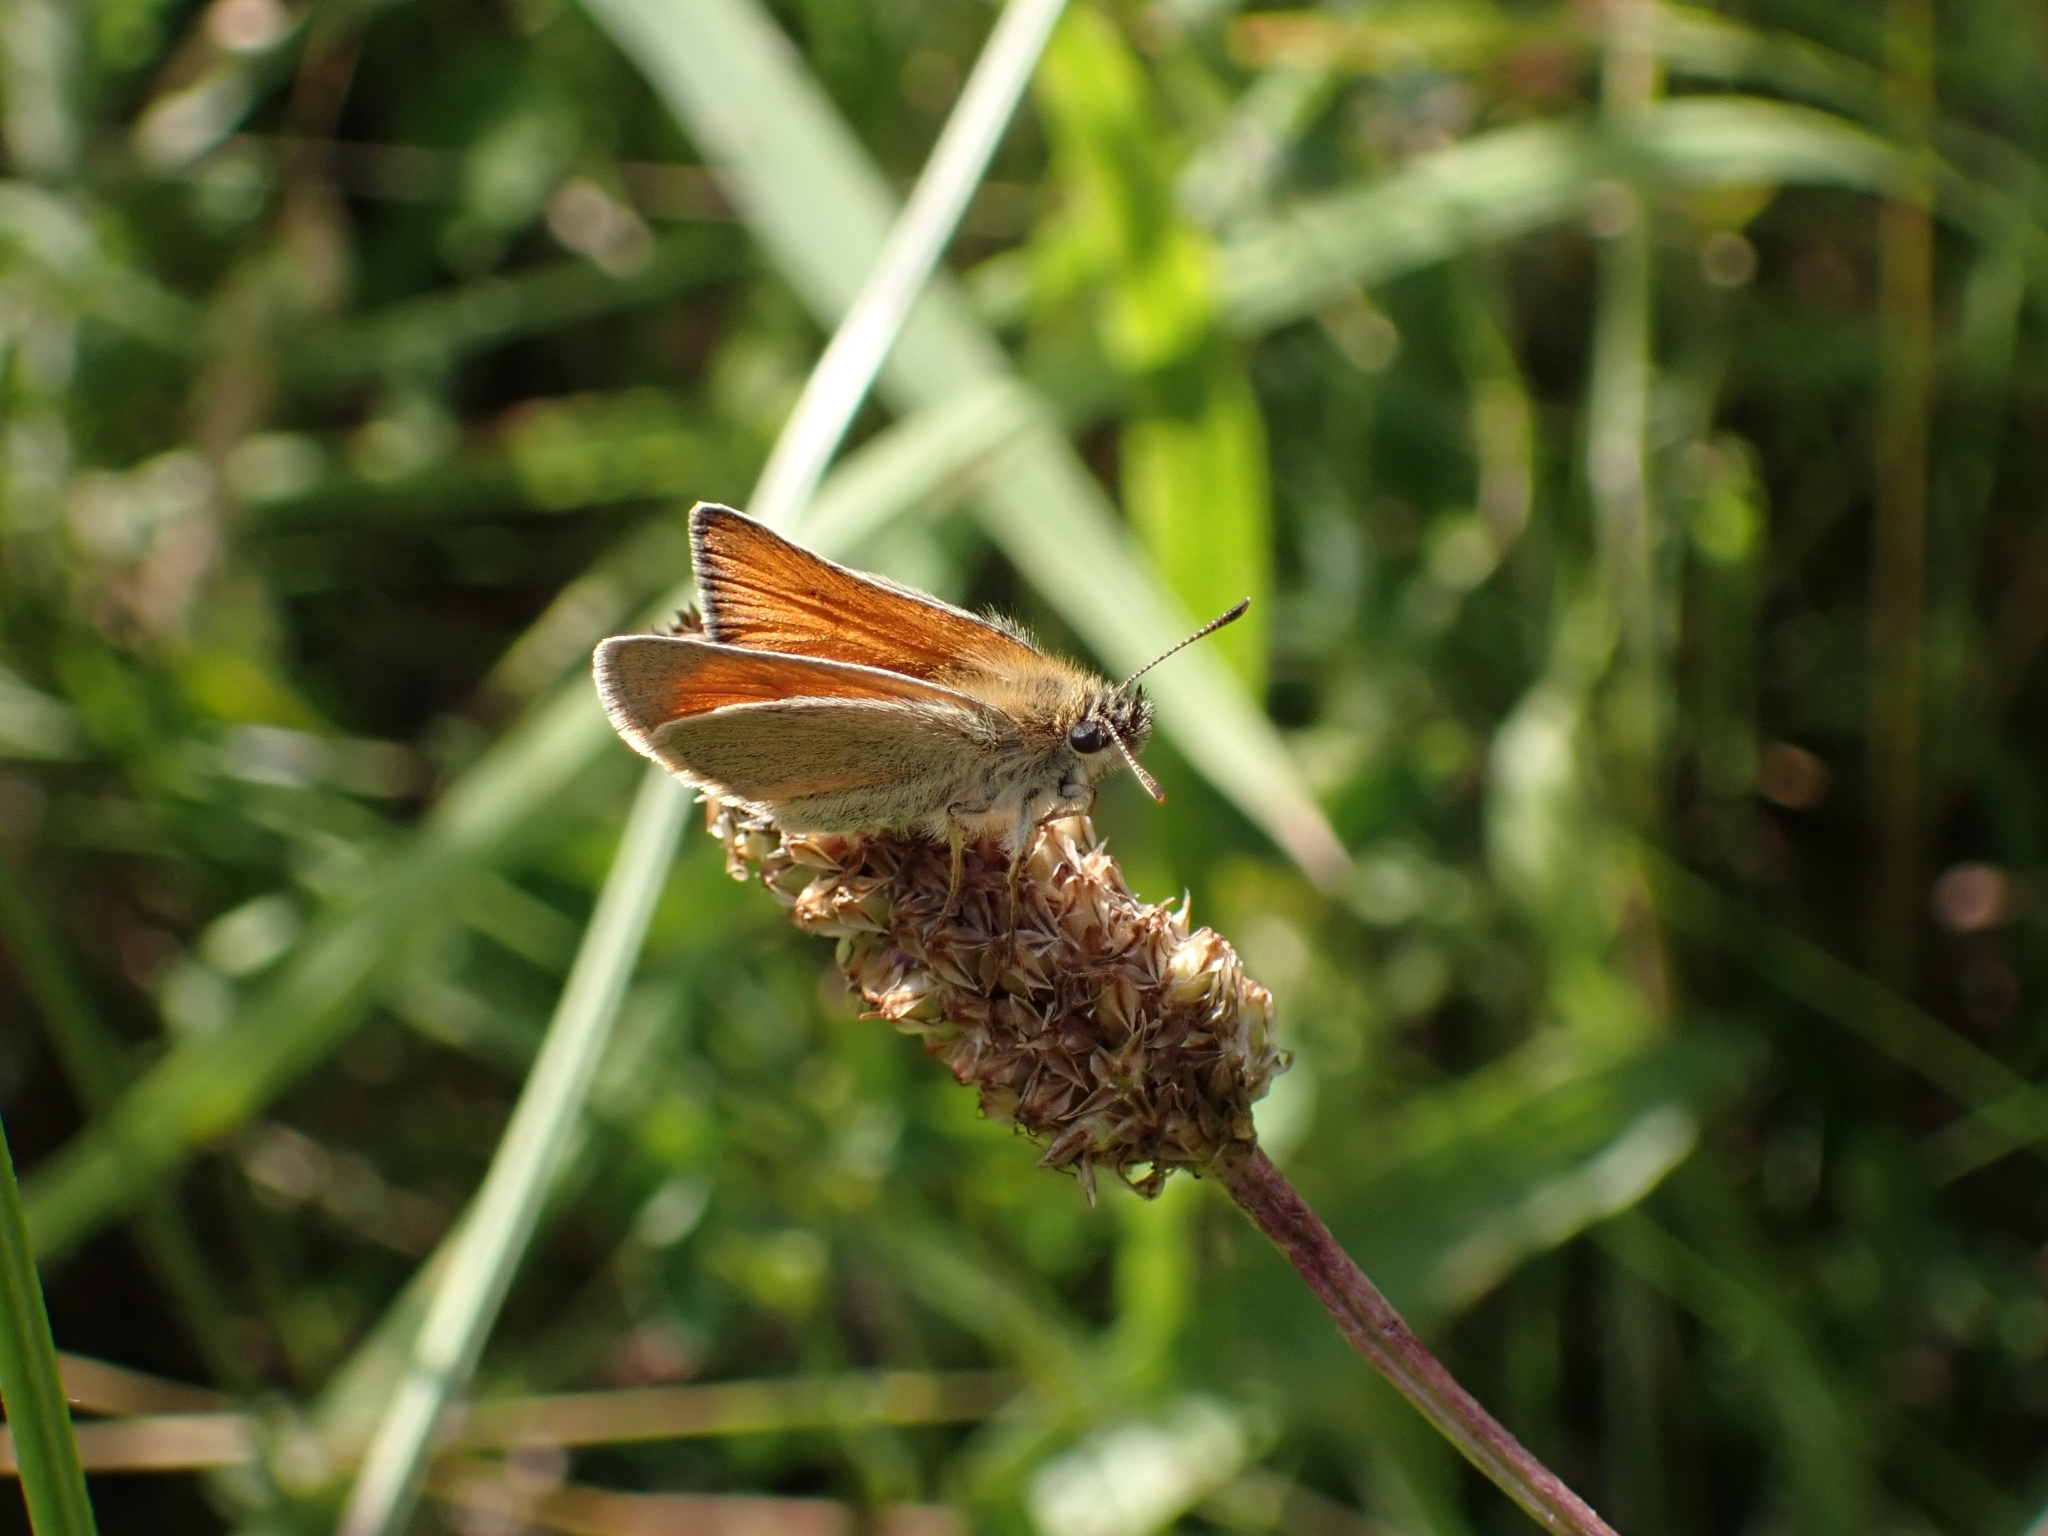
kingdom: Animalia
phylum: Arthropoda
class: Insecta
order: Lepidoptera
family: Hesperiidae
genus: Thymelicus
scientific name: Thymelicus sylvestris
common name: Small skipper
